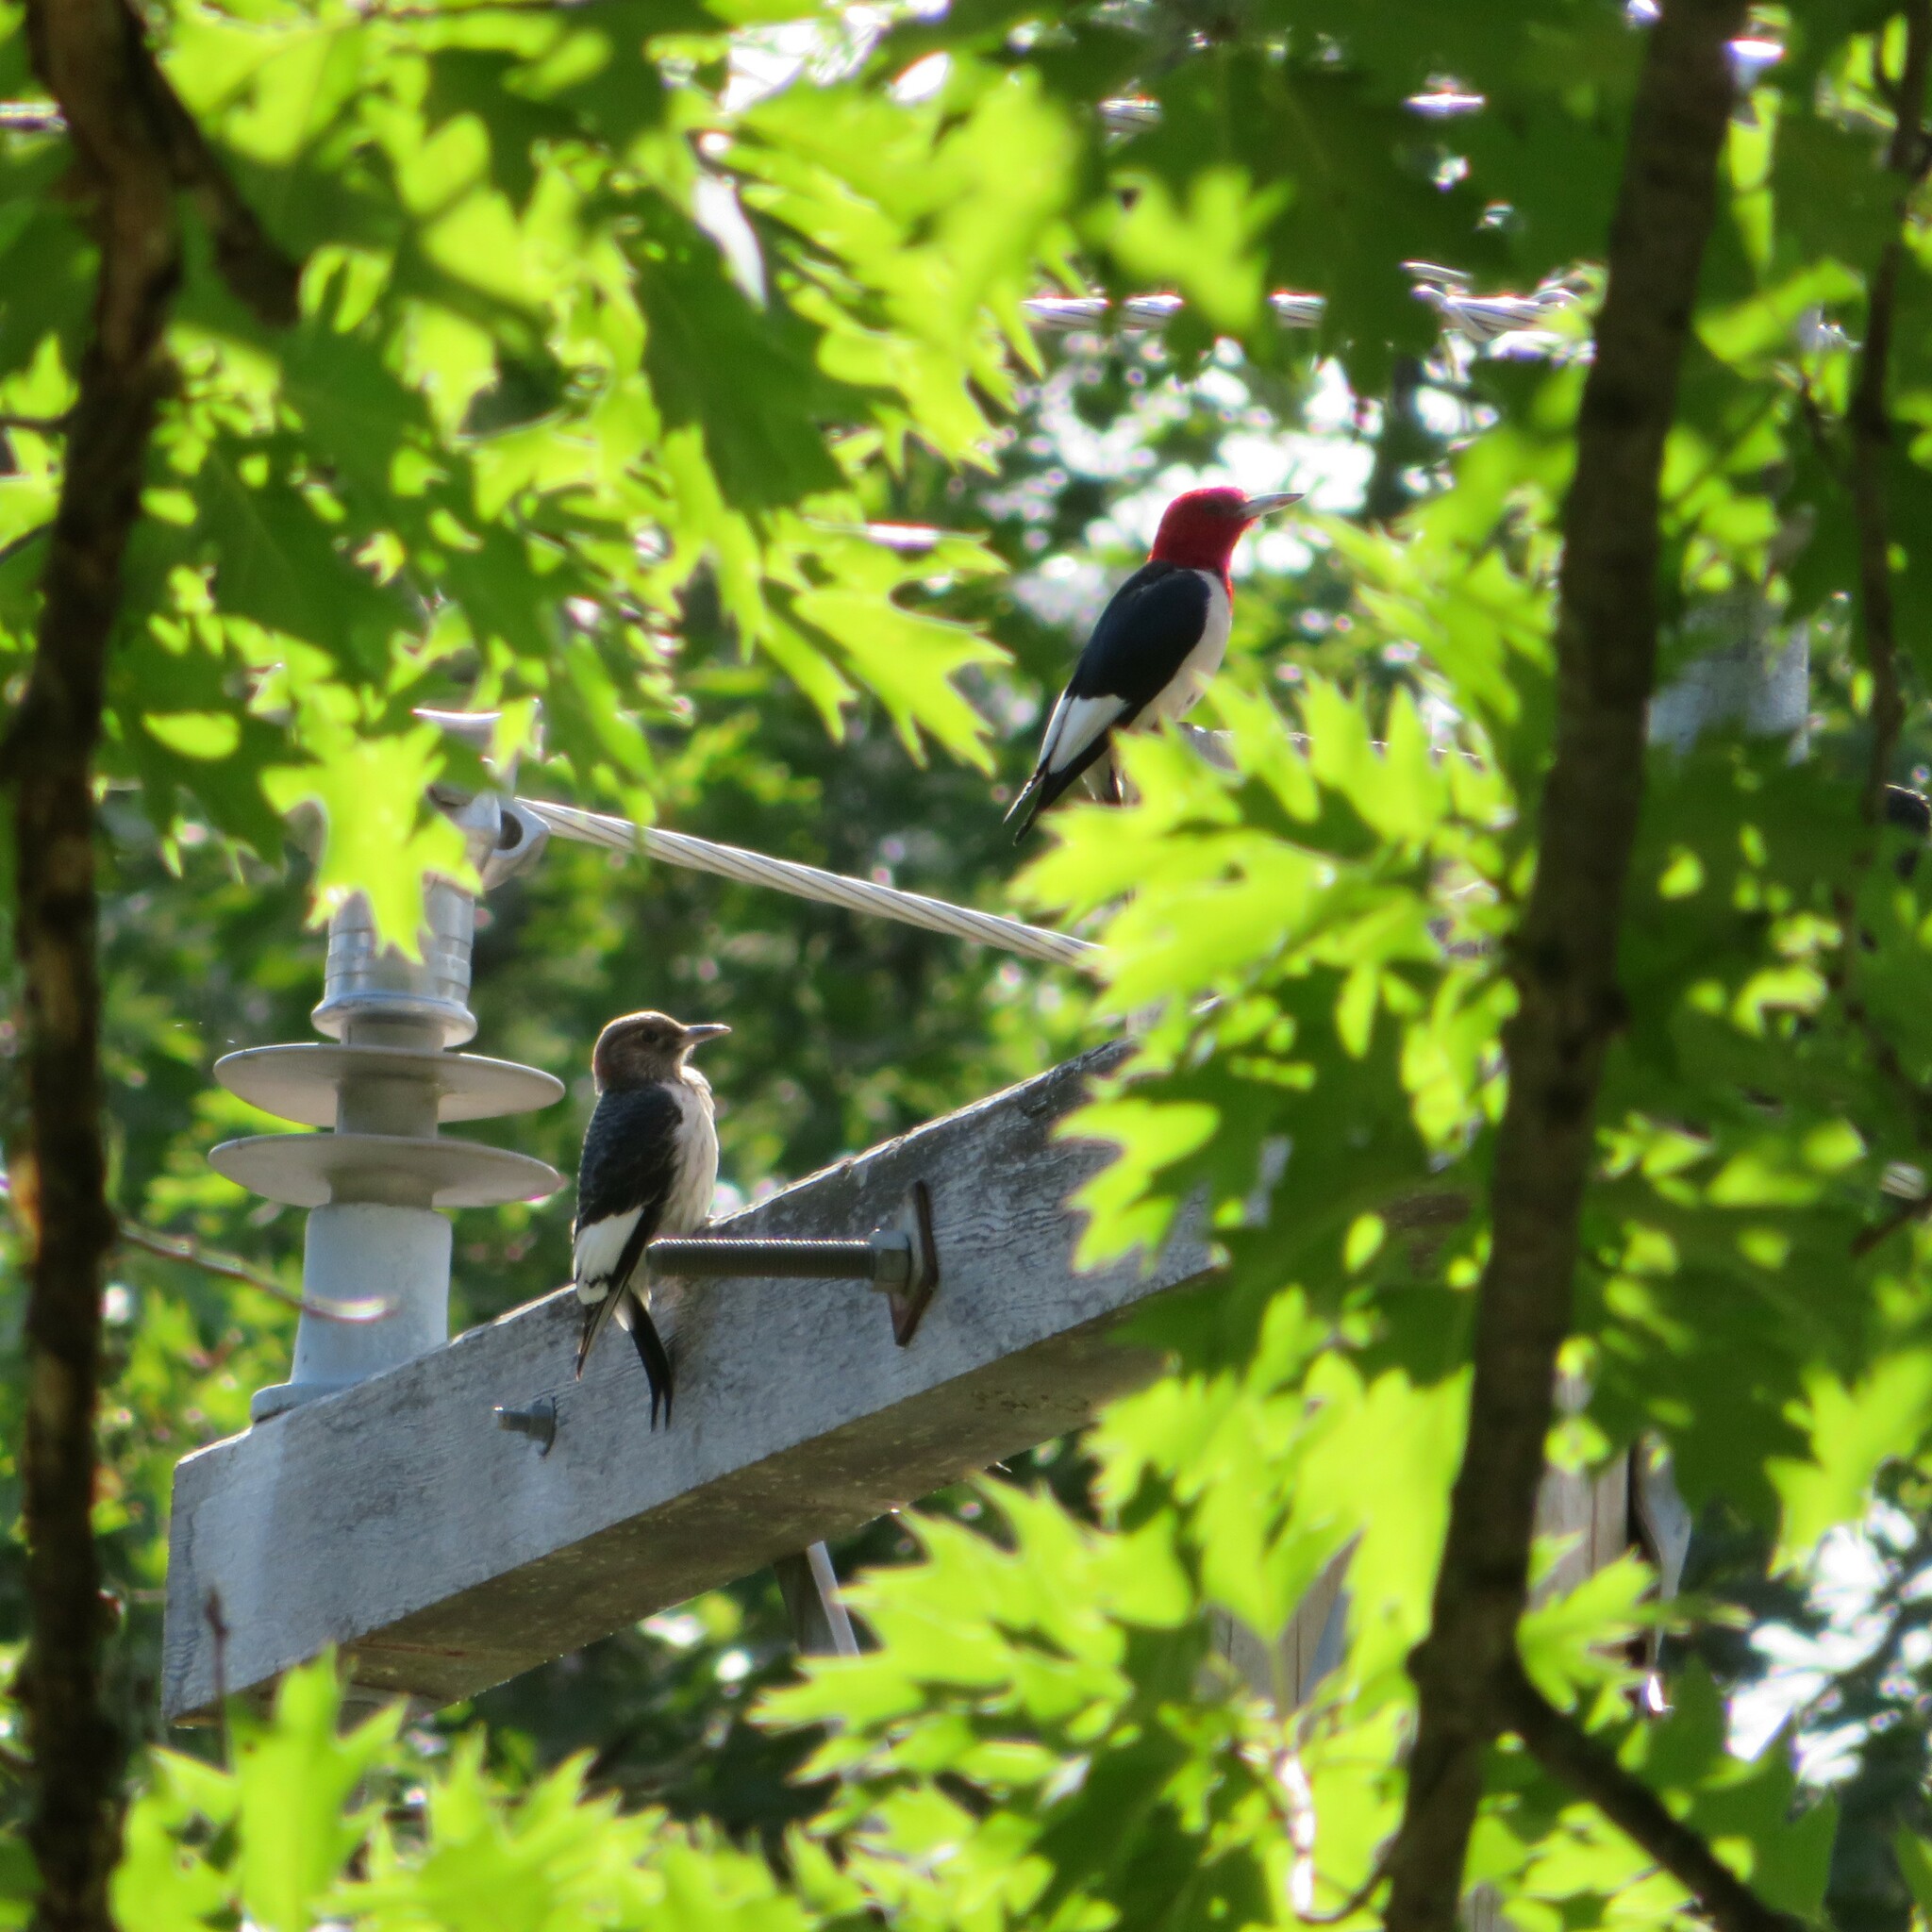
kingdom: Animalia
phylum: Chordata
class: Aves
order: Piciformes
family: Picidae
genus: Melanerpes
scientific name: Melanerpes erythrocephalus
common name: Red-headed woodpecker
